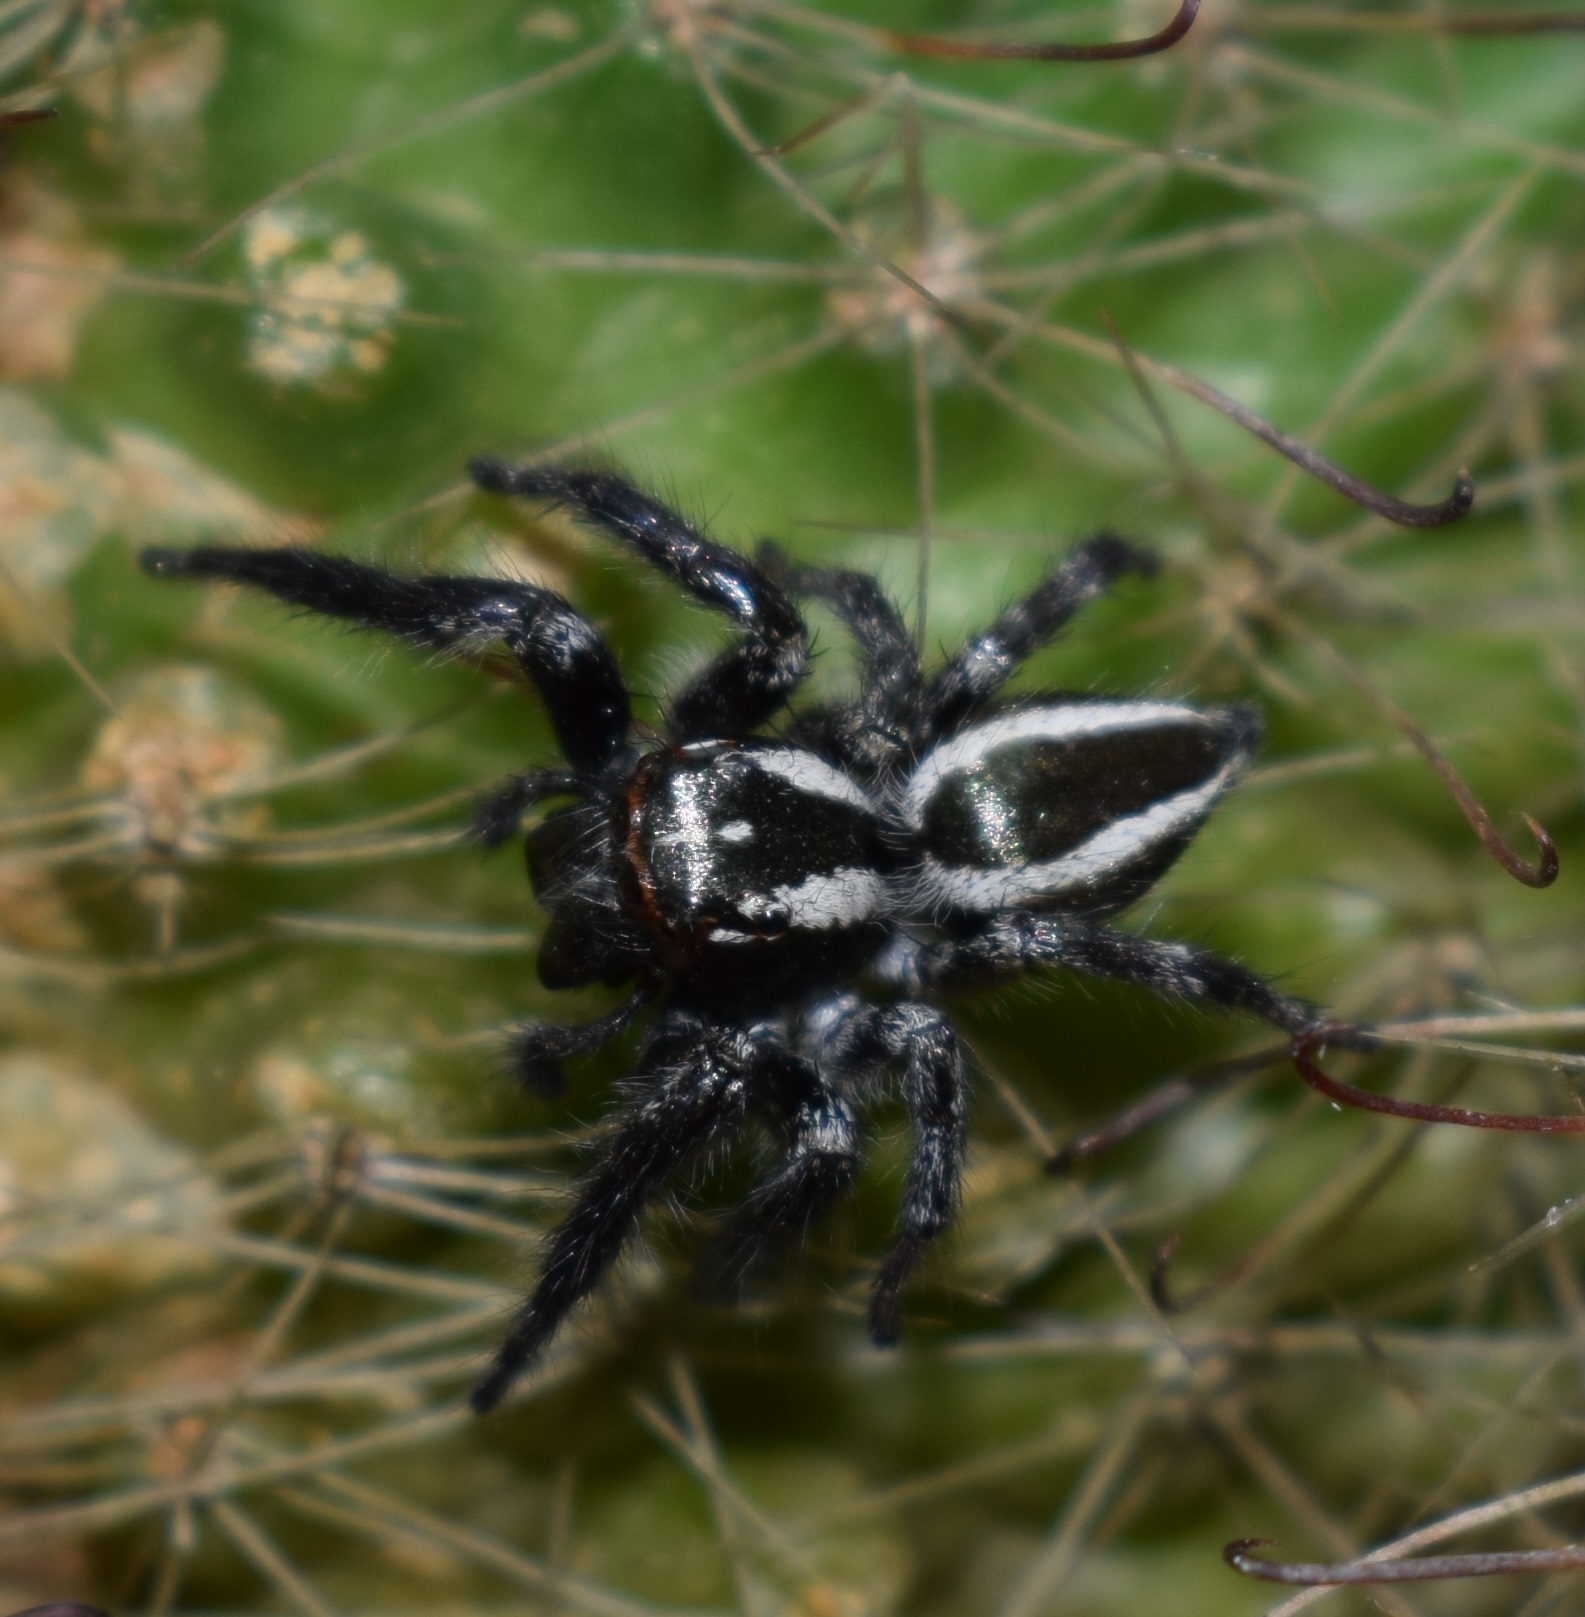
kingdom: Animalia
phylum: Arthropoda
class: Arachnida
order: Araneae
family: Salticidae
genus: Carrhotus
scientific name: Carrhotus viduus
